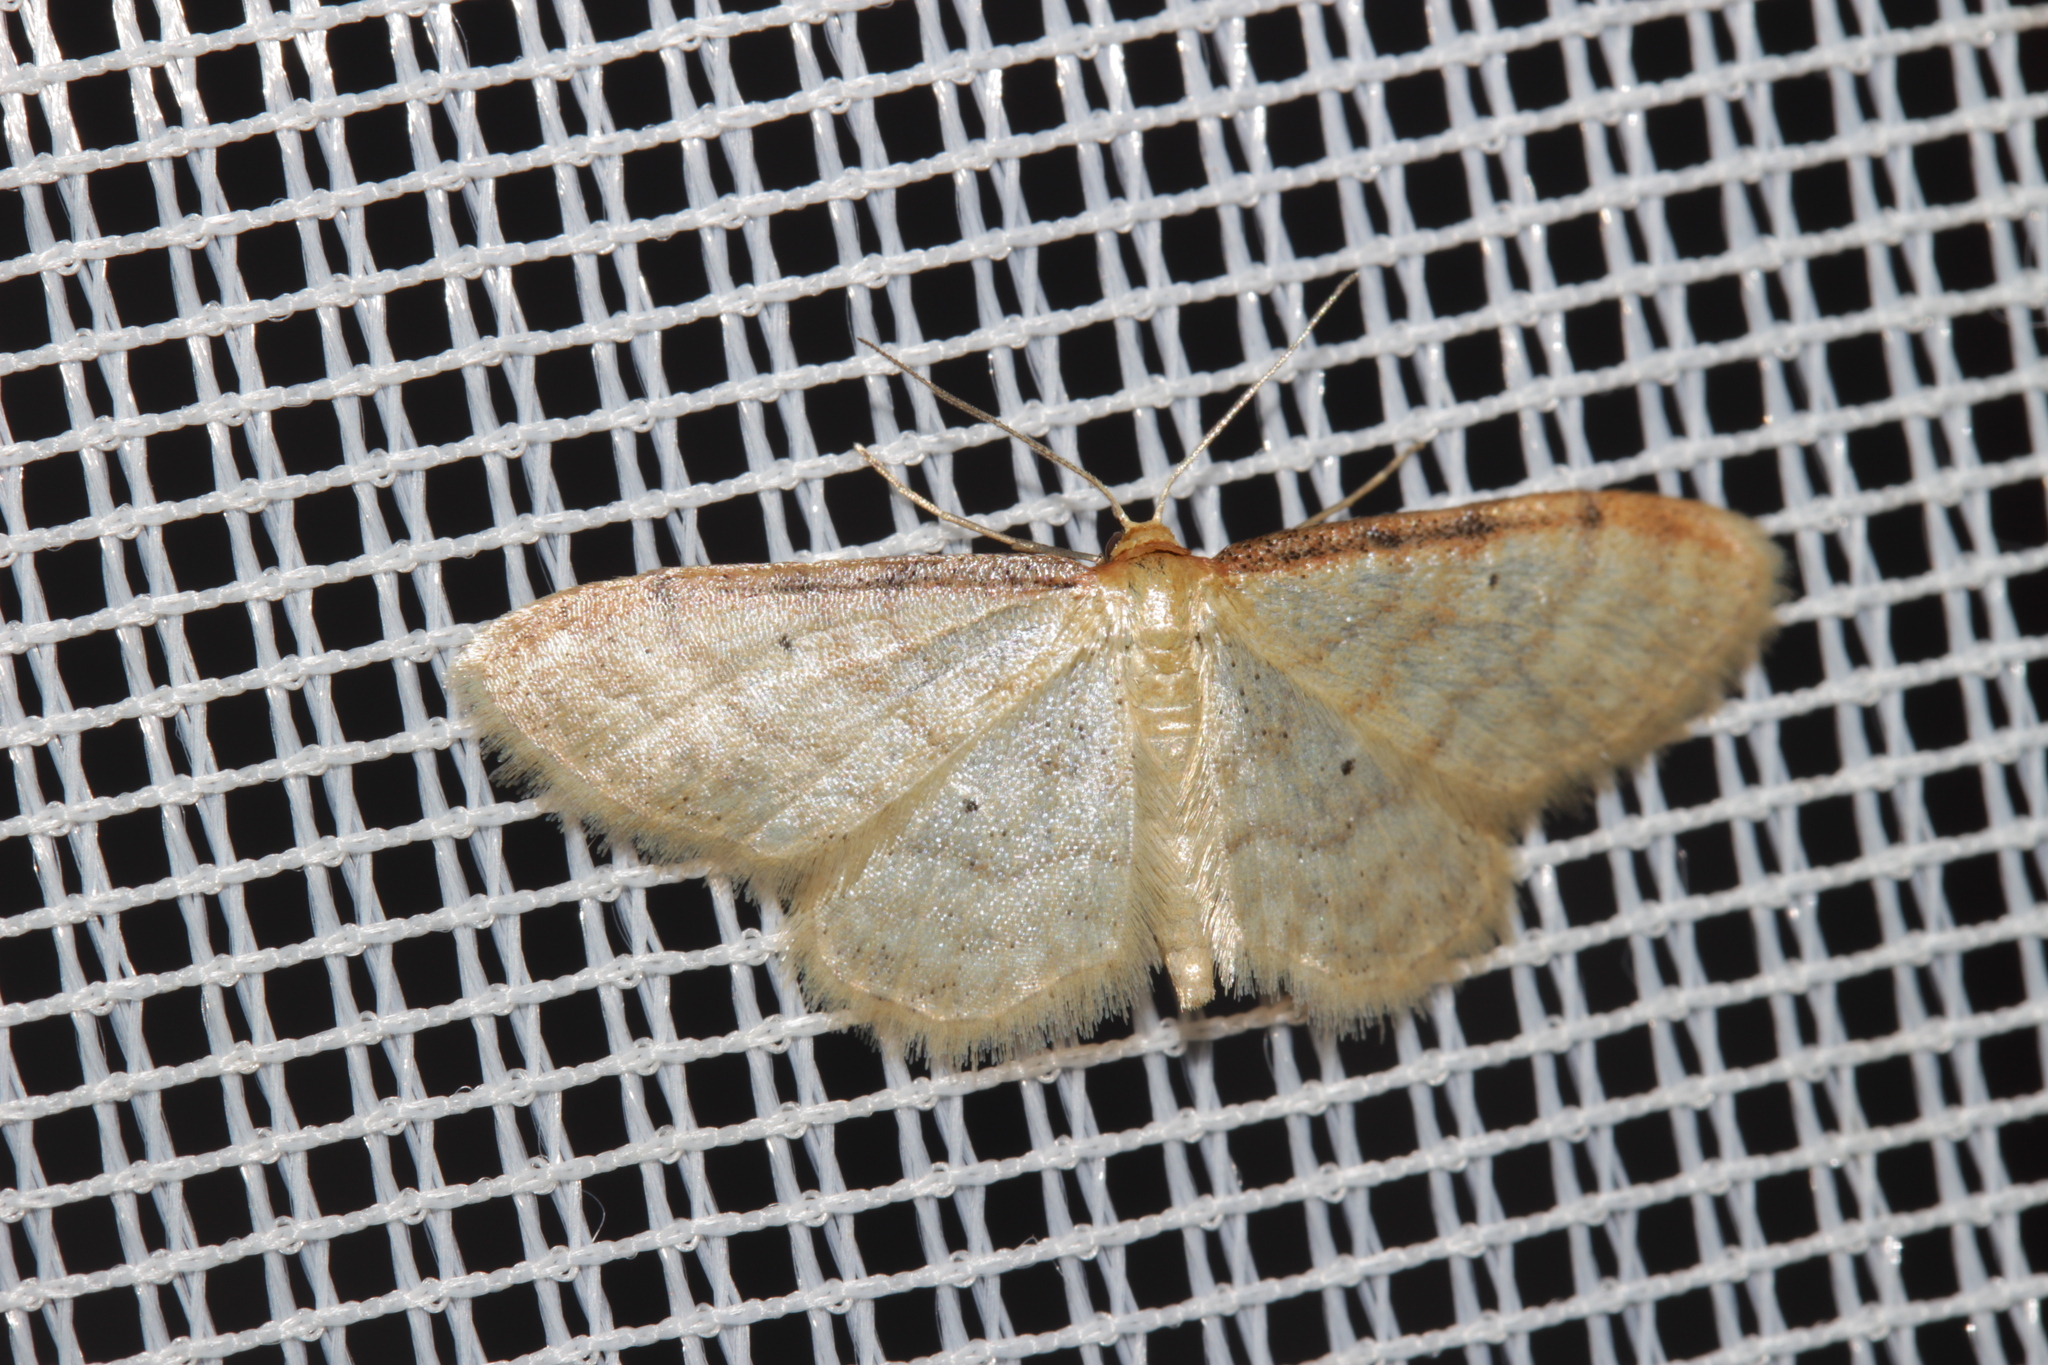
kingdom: Animalia
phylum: Arthropoda
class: Insecta
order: Lepidoptera
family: Geometridae
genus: Idaea
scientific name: Idaea humiliata
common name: Isle of wight wave
